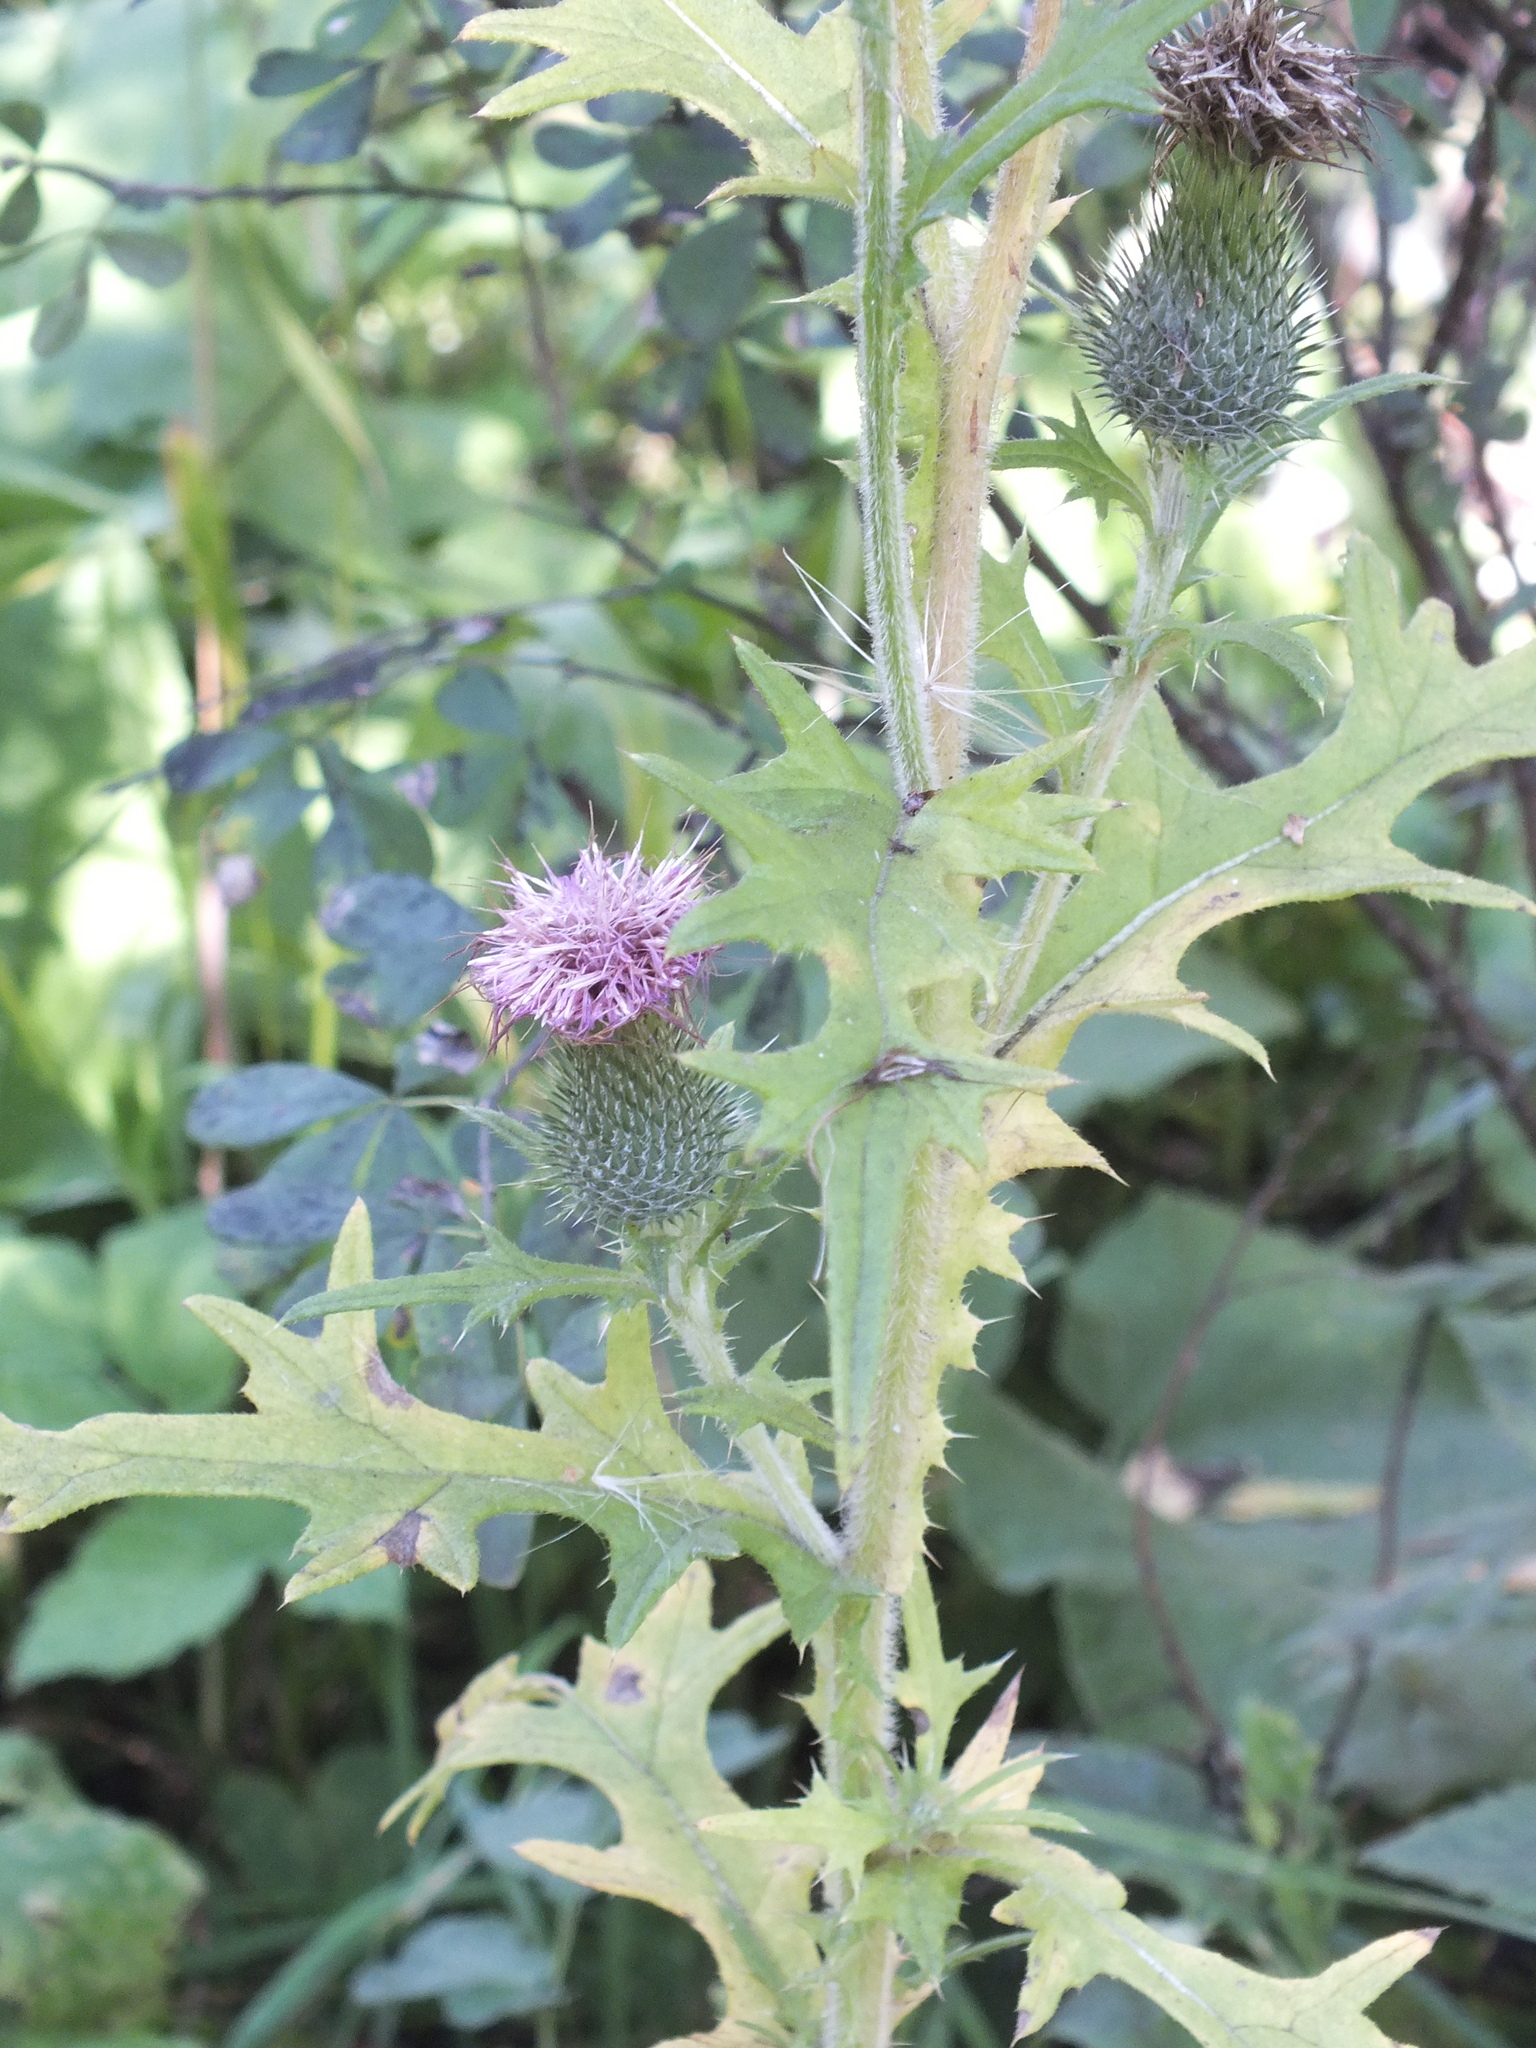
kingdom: Plantae
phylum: Tracheophyta
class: Magnoliopsida
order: Asterales
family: Asteraceae
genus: Cirsium
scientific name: Cirsium vulgare
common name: Bull thistle
